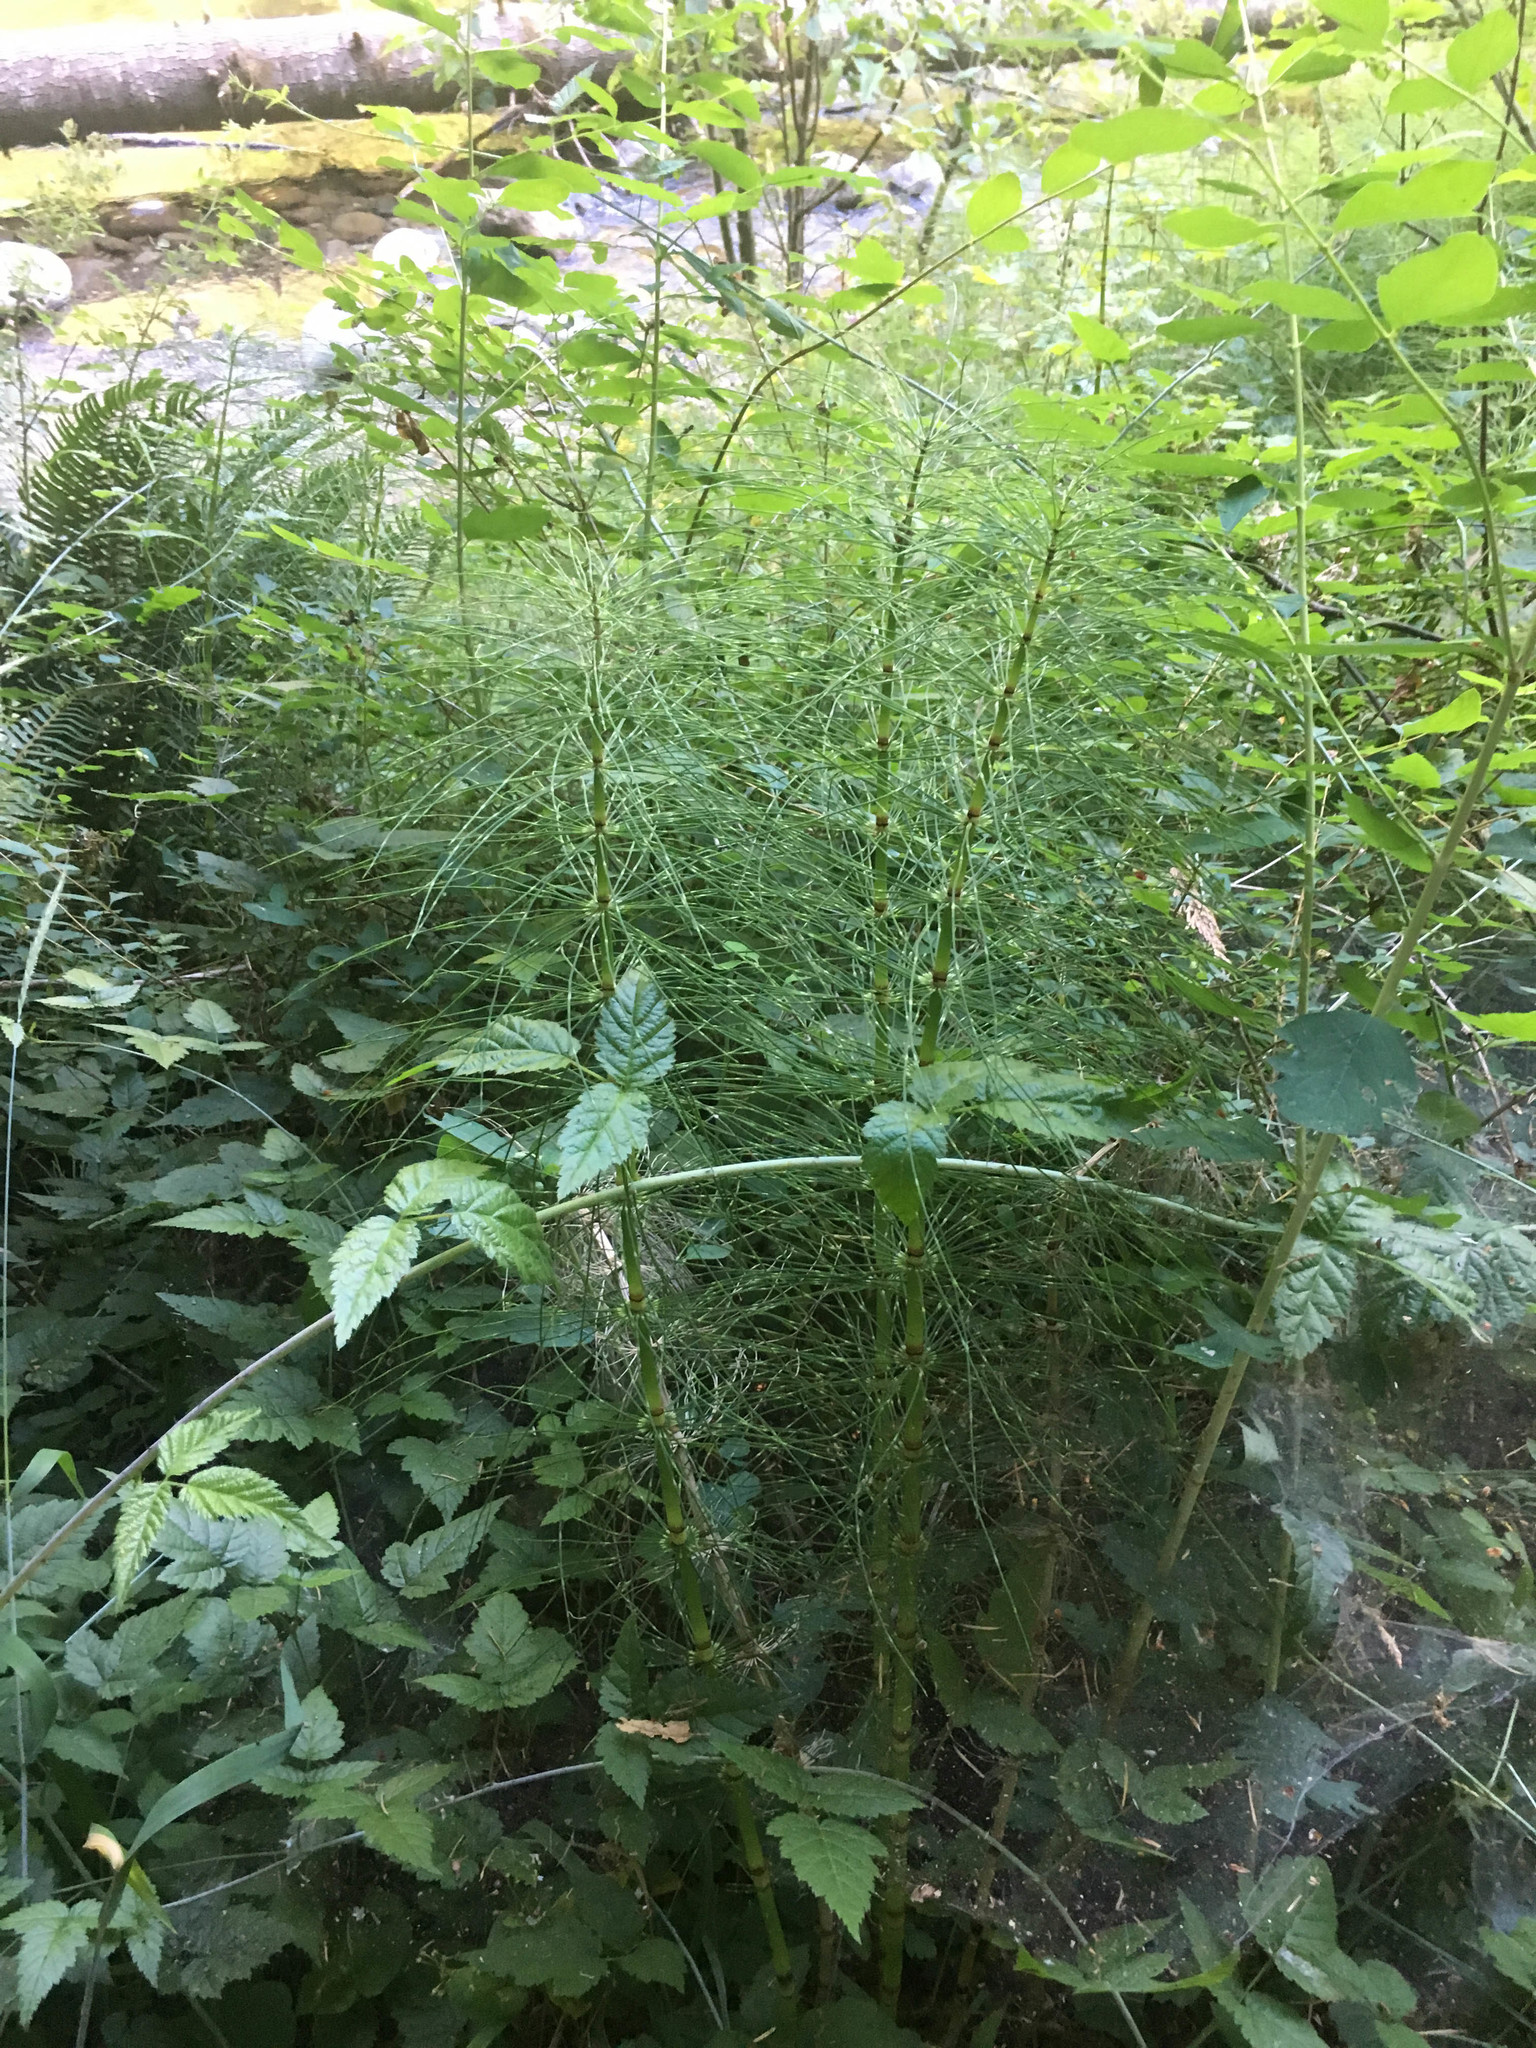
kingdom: Plantae
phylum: Tracheophyta
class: Polypodiopsida
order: Equisetales
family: Equisetaceae
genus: Equisetum
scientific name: Equisetum telmateia
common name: Great horsetail
